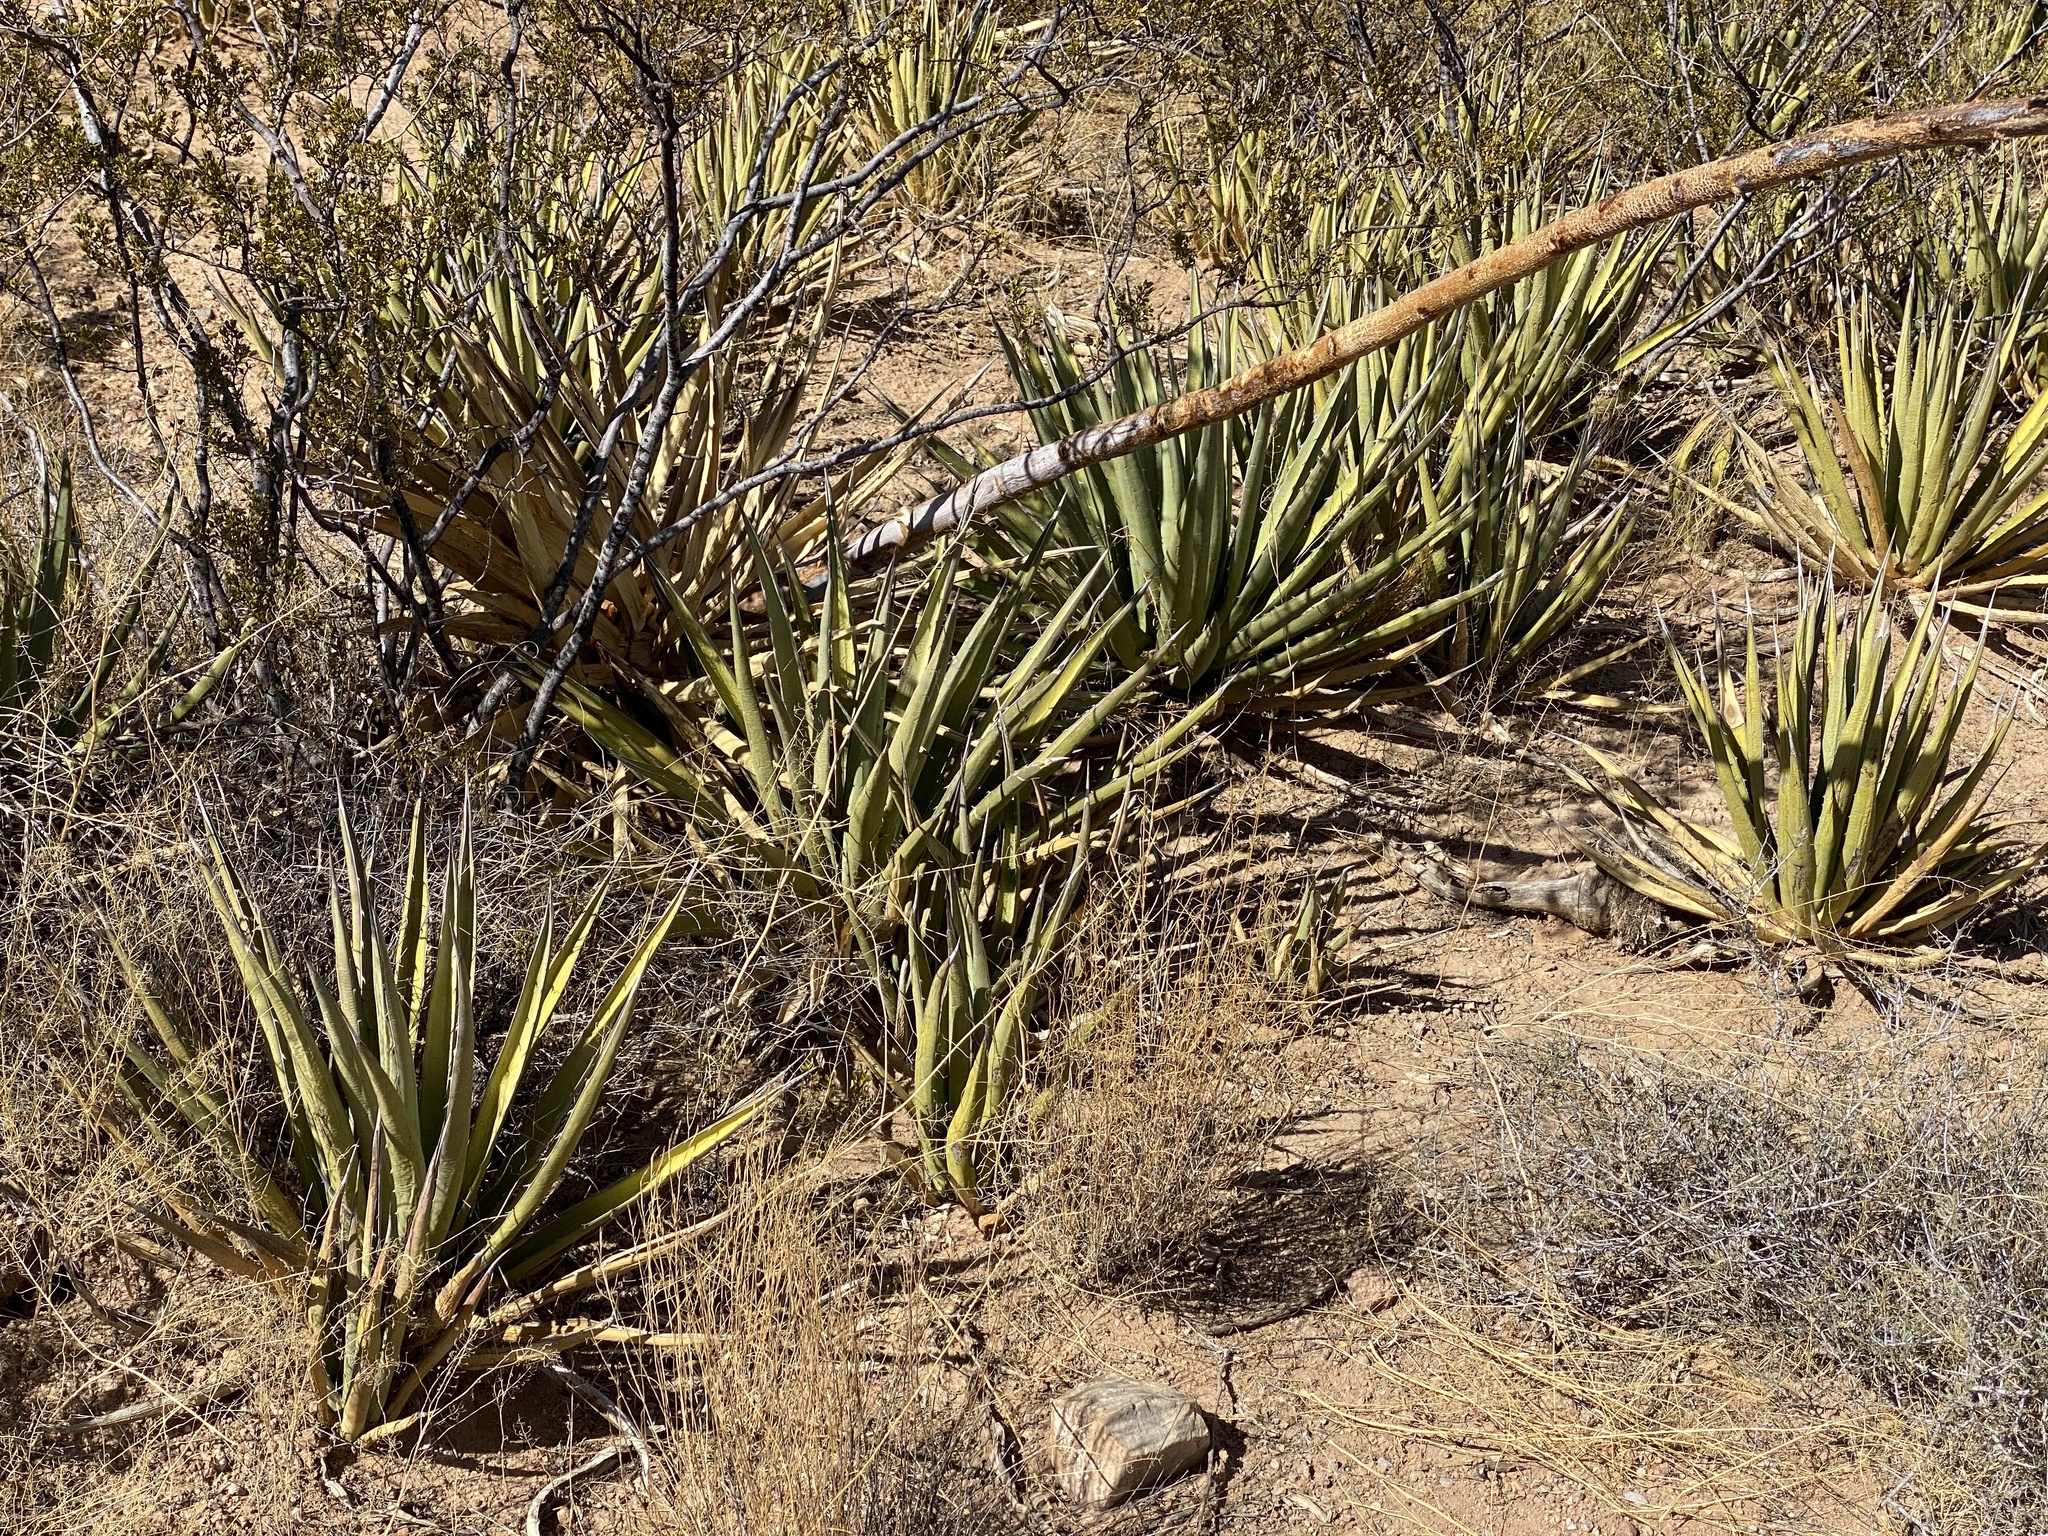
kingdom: Plantae
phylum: Tracheophyta
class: Liliopsida
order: Asparagales
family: Asparagaceae
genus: Agave
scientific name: Agave lechuguilla
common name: Lecheguilla agave
